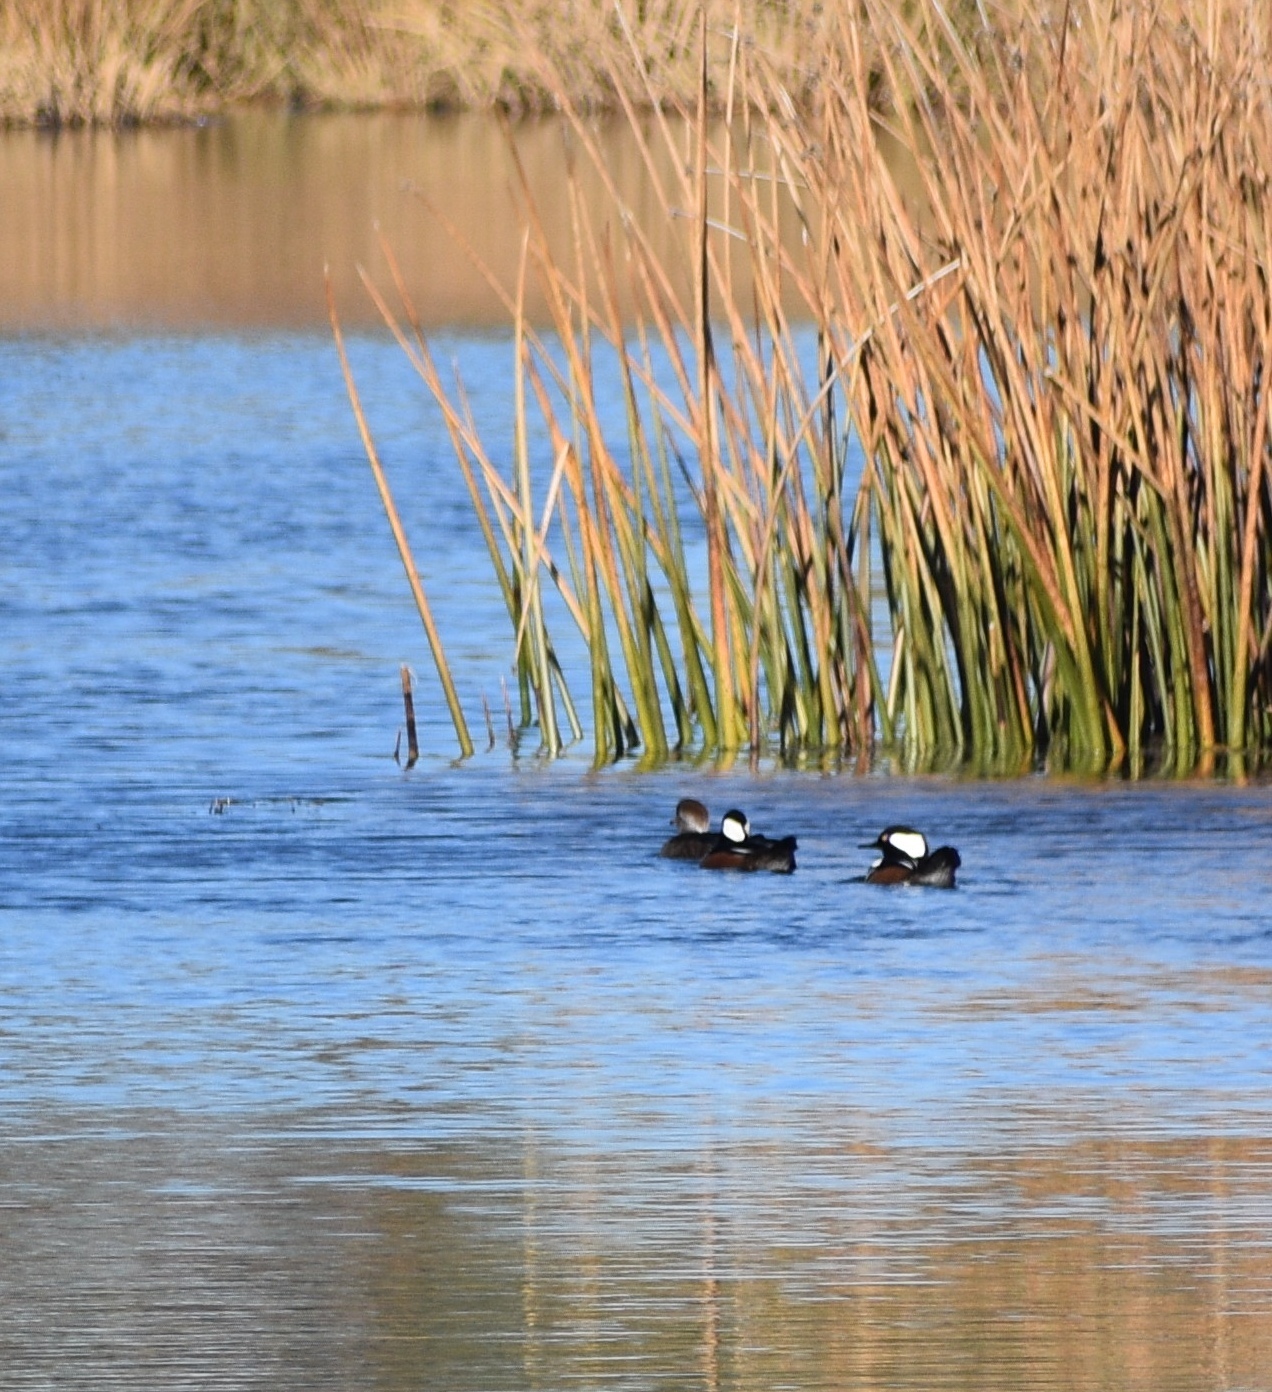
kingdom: Animalia
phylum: Chordata
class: Aves
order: Anseriformes
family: Anatidae
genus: Lophodytes
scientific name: Lophodytes cucullatus
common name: Hooded merganser
